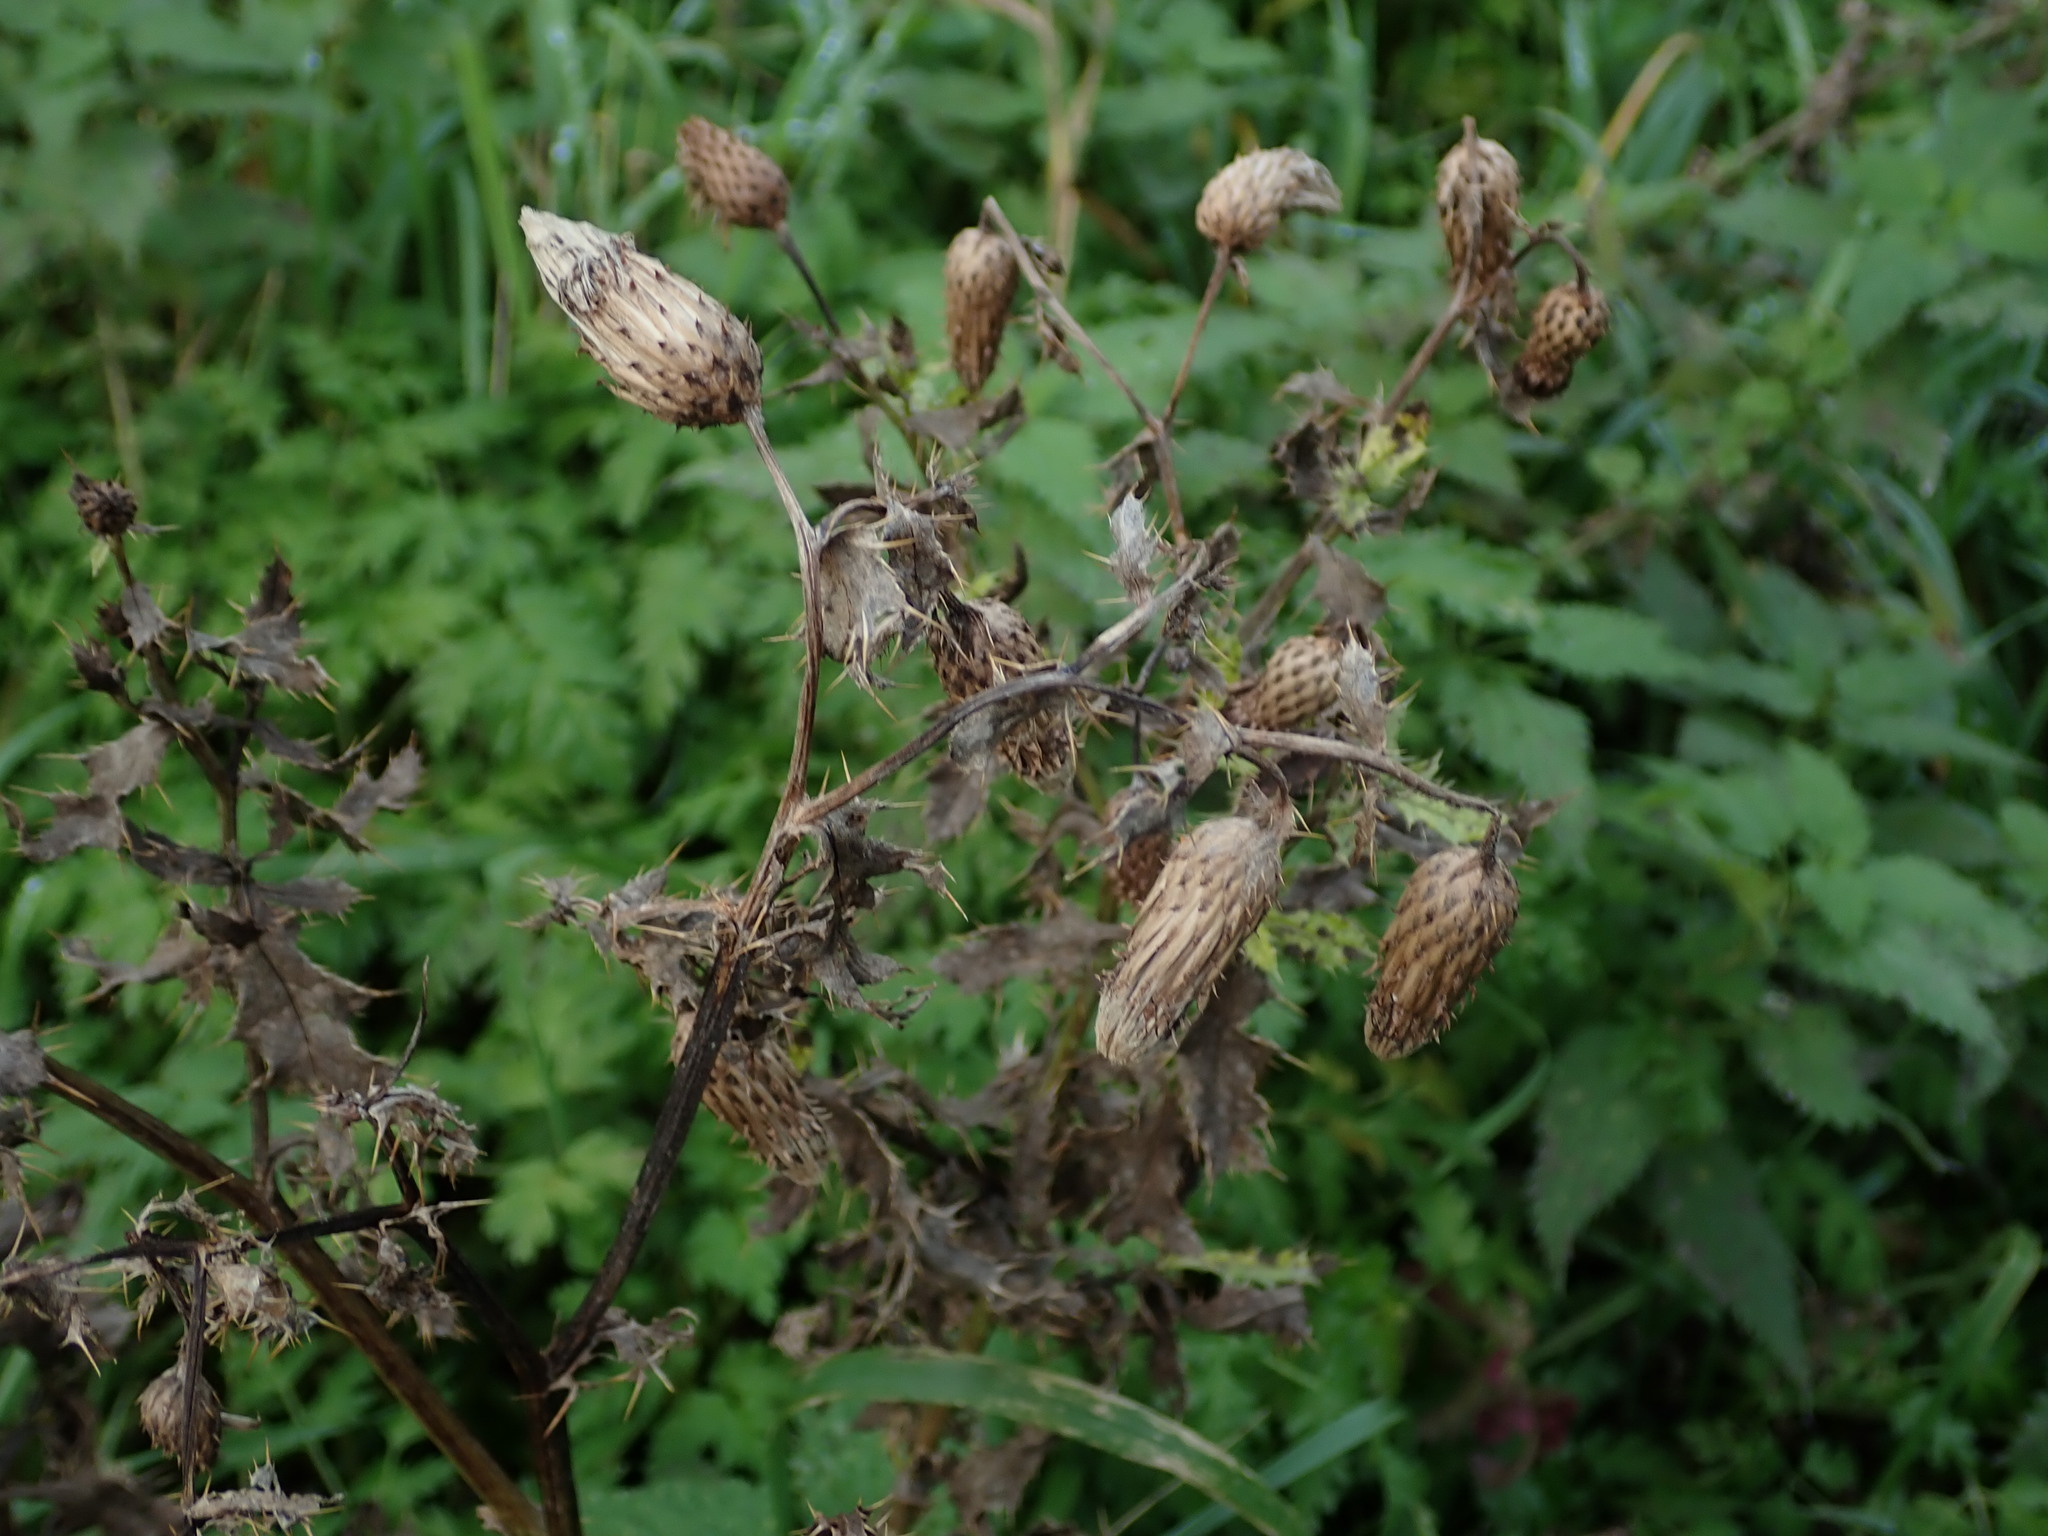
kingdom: Plantae
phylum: Tracheophyta
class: Magnoliopsida
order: Asterales
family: Asteraceae
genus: Cirsium
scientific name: Cirsium arvense
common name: Creeping thistle
